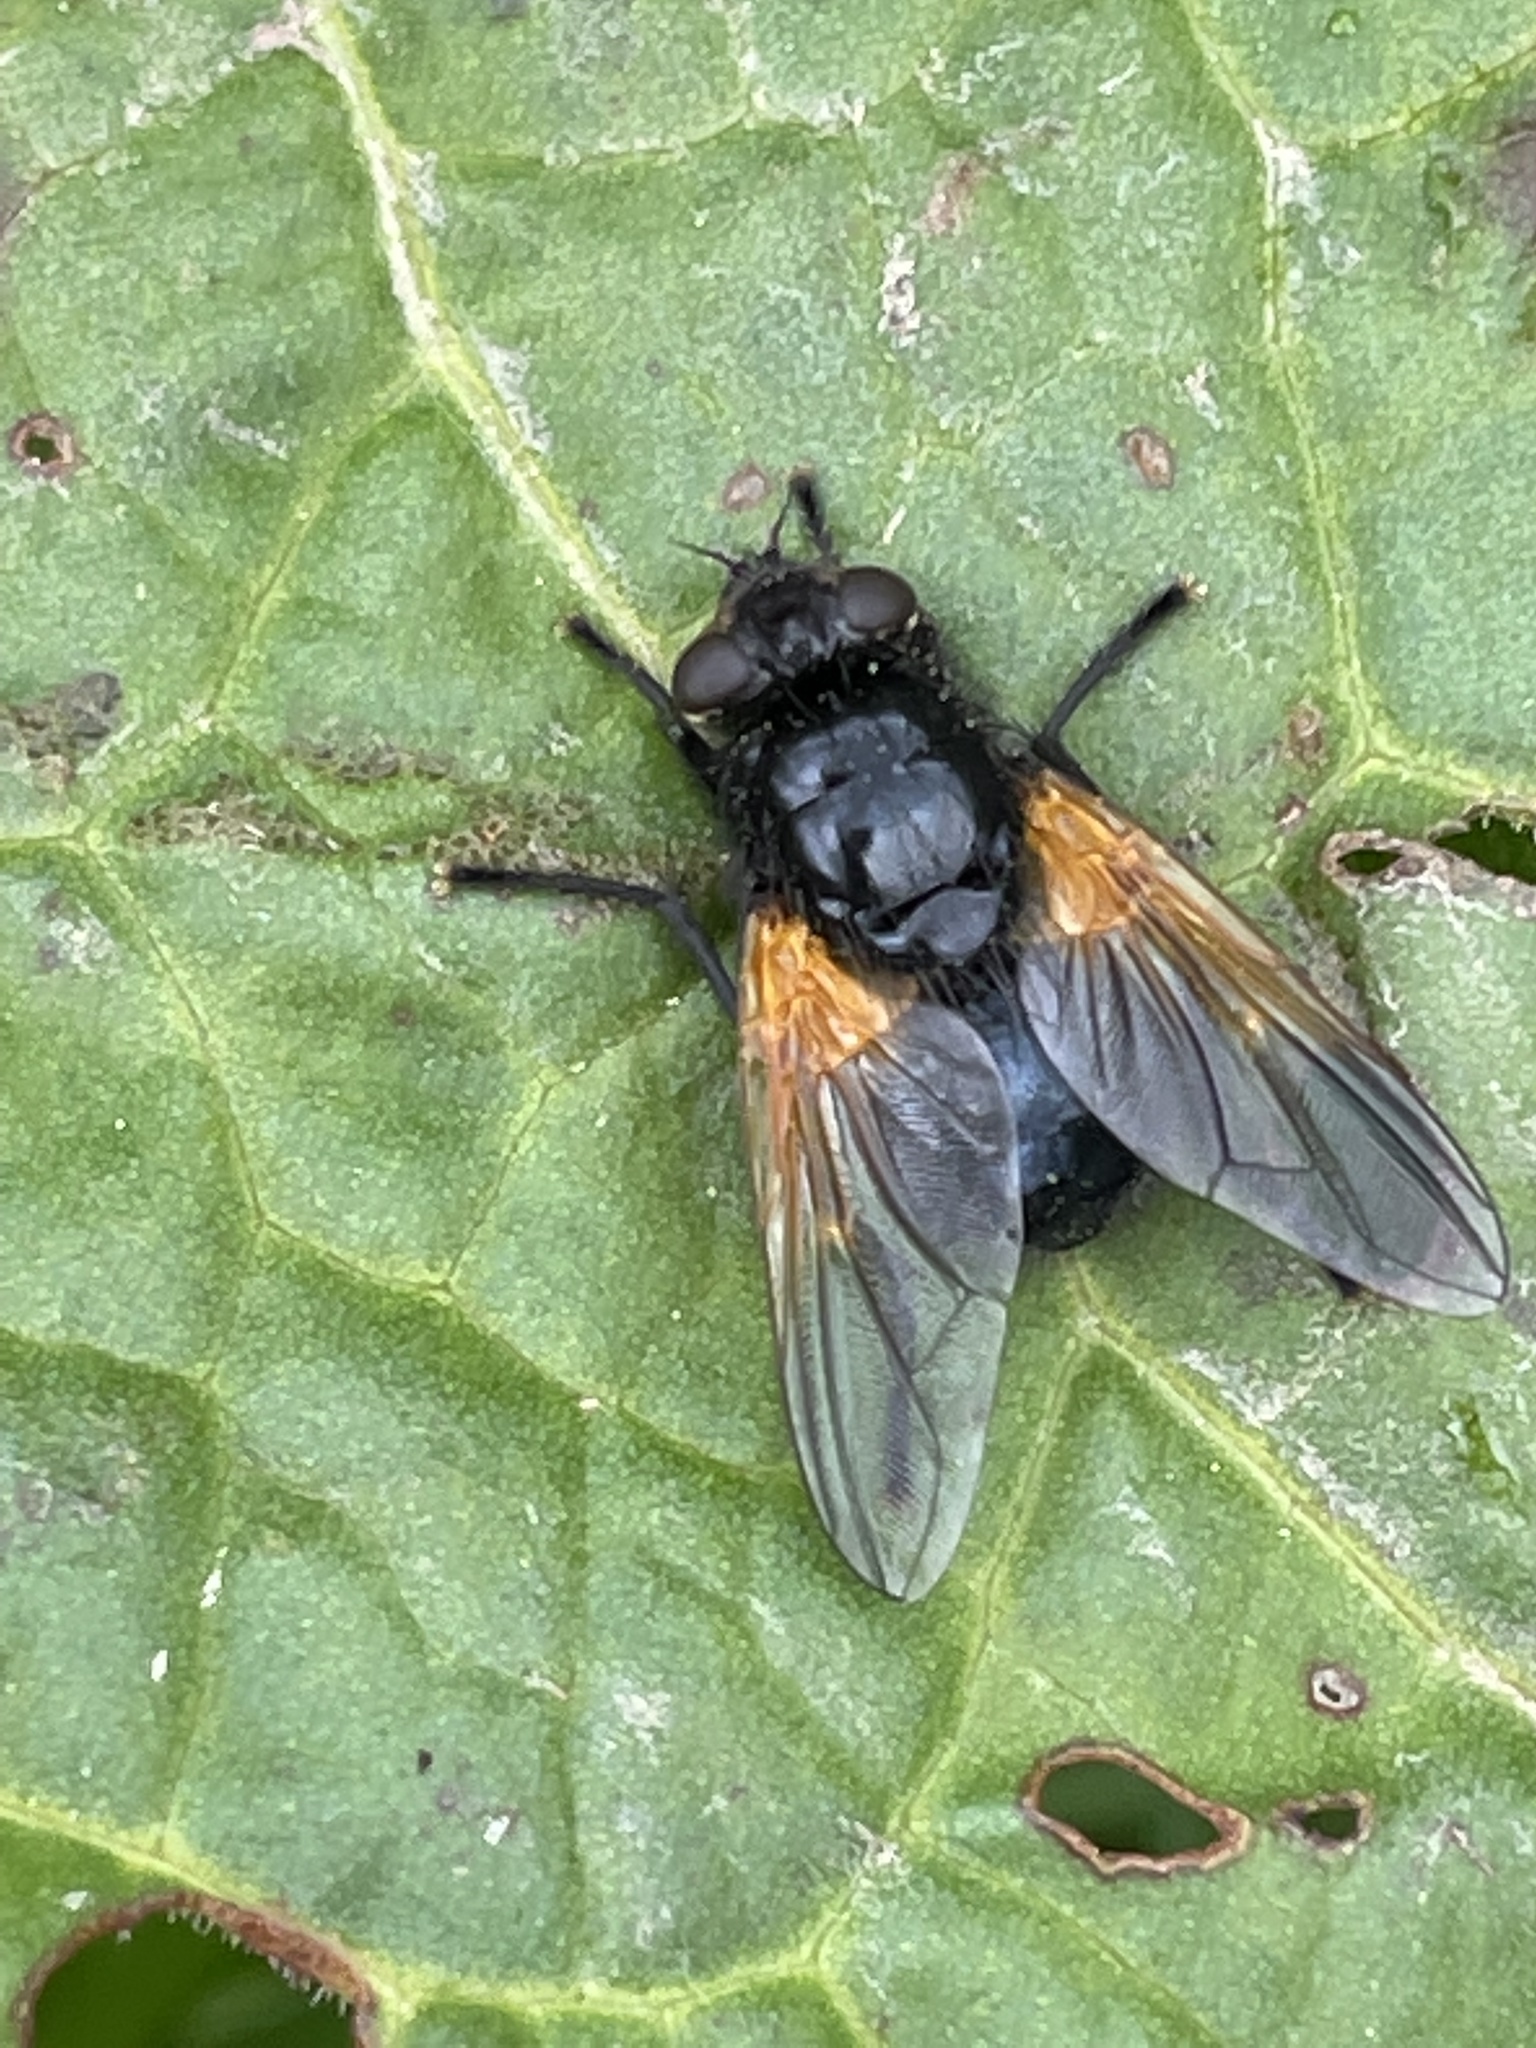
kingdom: Animalia
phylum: Arthropoda
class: Insecta
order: Diptera
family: Muscidae
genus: Mesembrina
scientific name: Mesembrina meridiana
